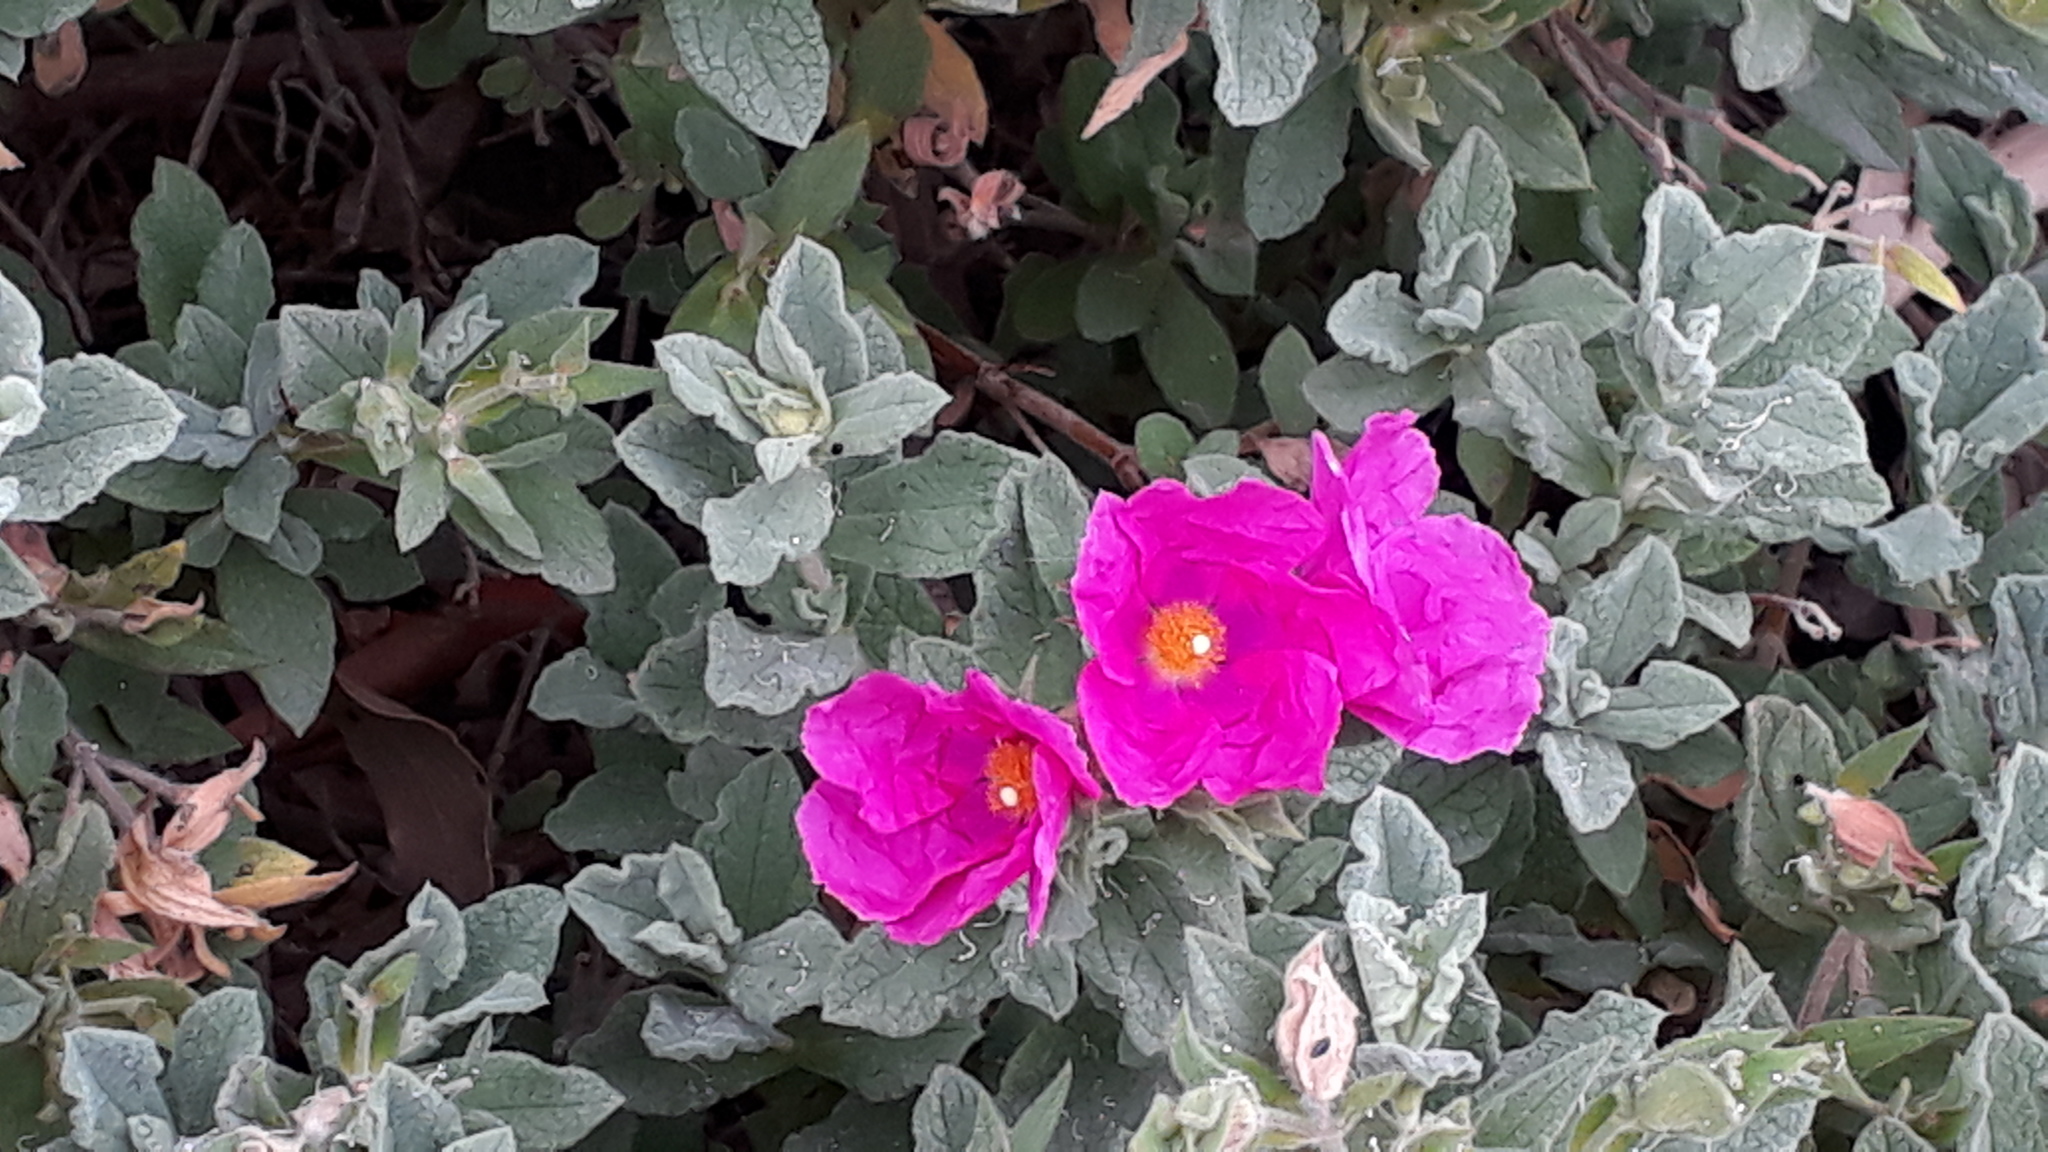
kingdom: Plantae
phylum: Tracheophyta
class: Magnoliopsida
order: Malvales
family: Cistaceae
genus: Cistus
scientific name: Cistus creticus
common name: Cretan rockrose
